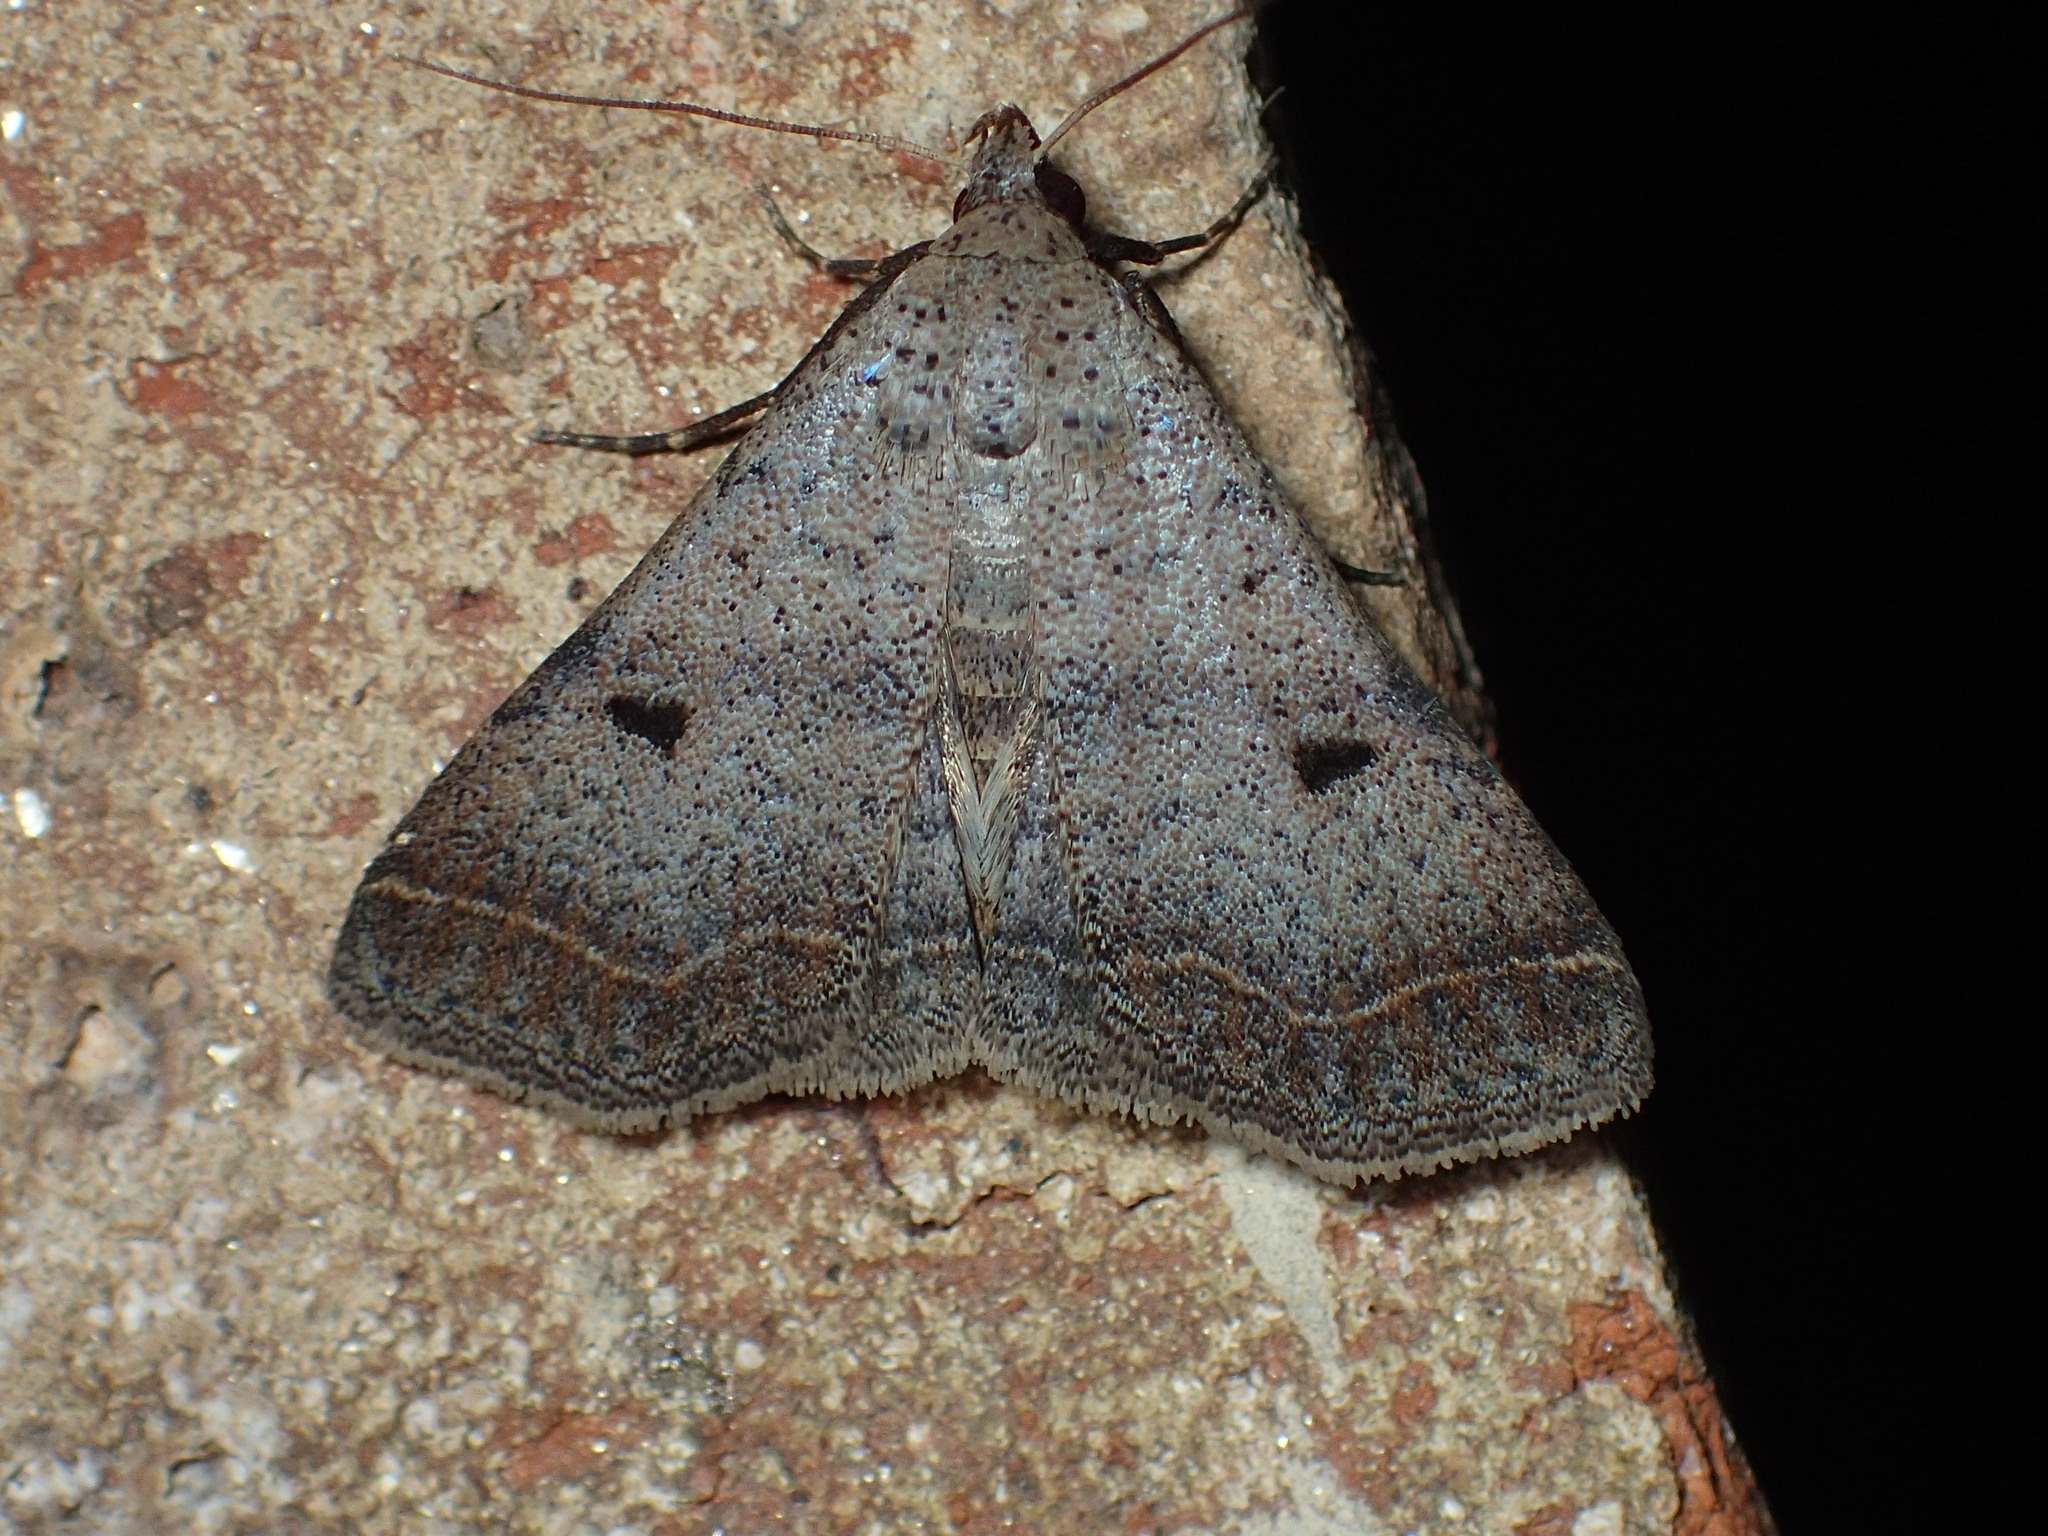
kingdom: Animalia
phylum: Arthropoda
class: Insecta
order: Lepidoptera
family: Erebidae
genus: Bleptina
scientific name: Bleptina caradrinalis
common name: Bent-winged owlet
